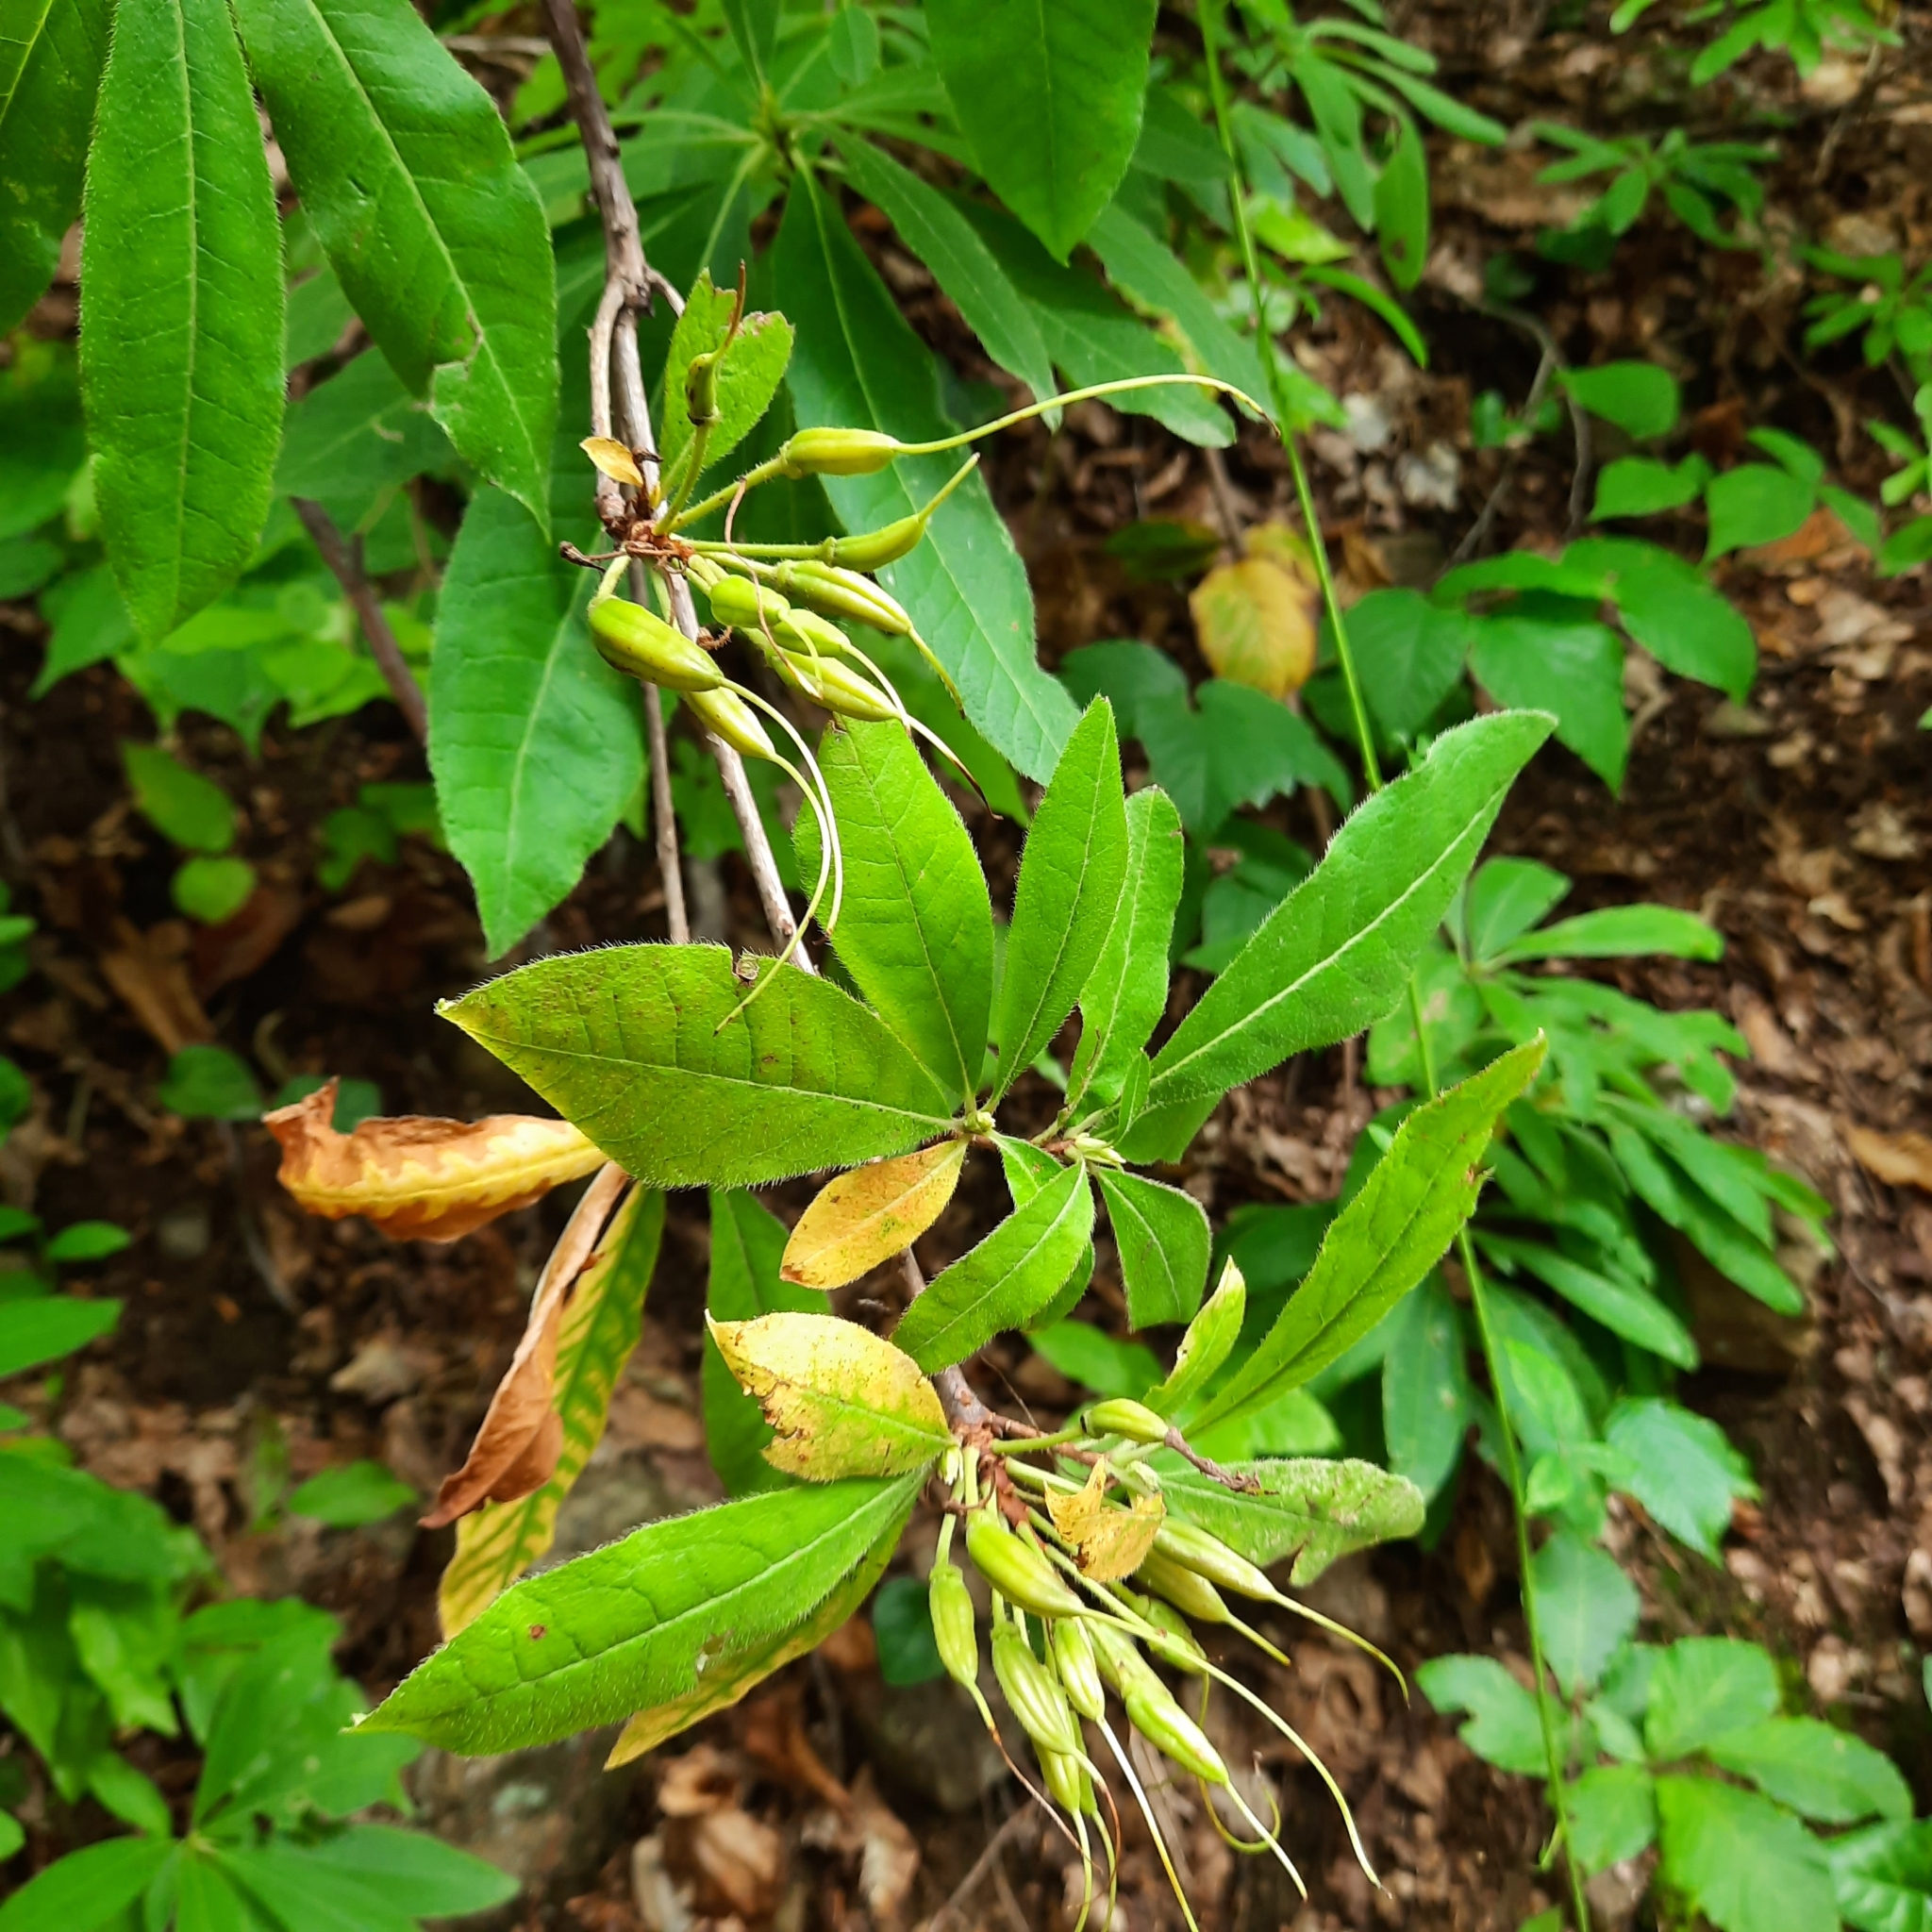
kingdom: Plantae
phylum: Tracheophyta
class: Magnoliopsida
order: Ericales
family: Ericaceae
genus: Rhododendron
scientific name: Rhododendron luteum
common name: Yellow azalea
